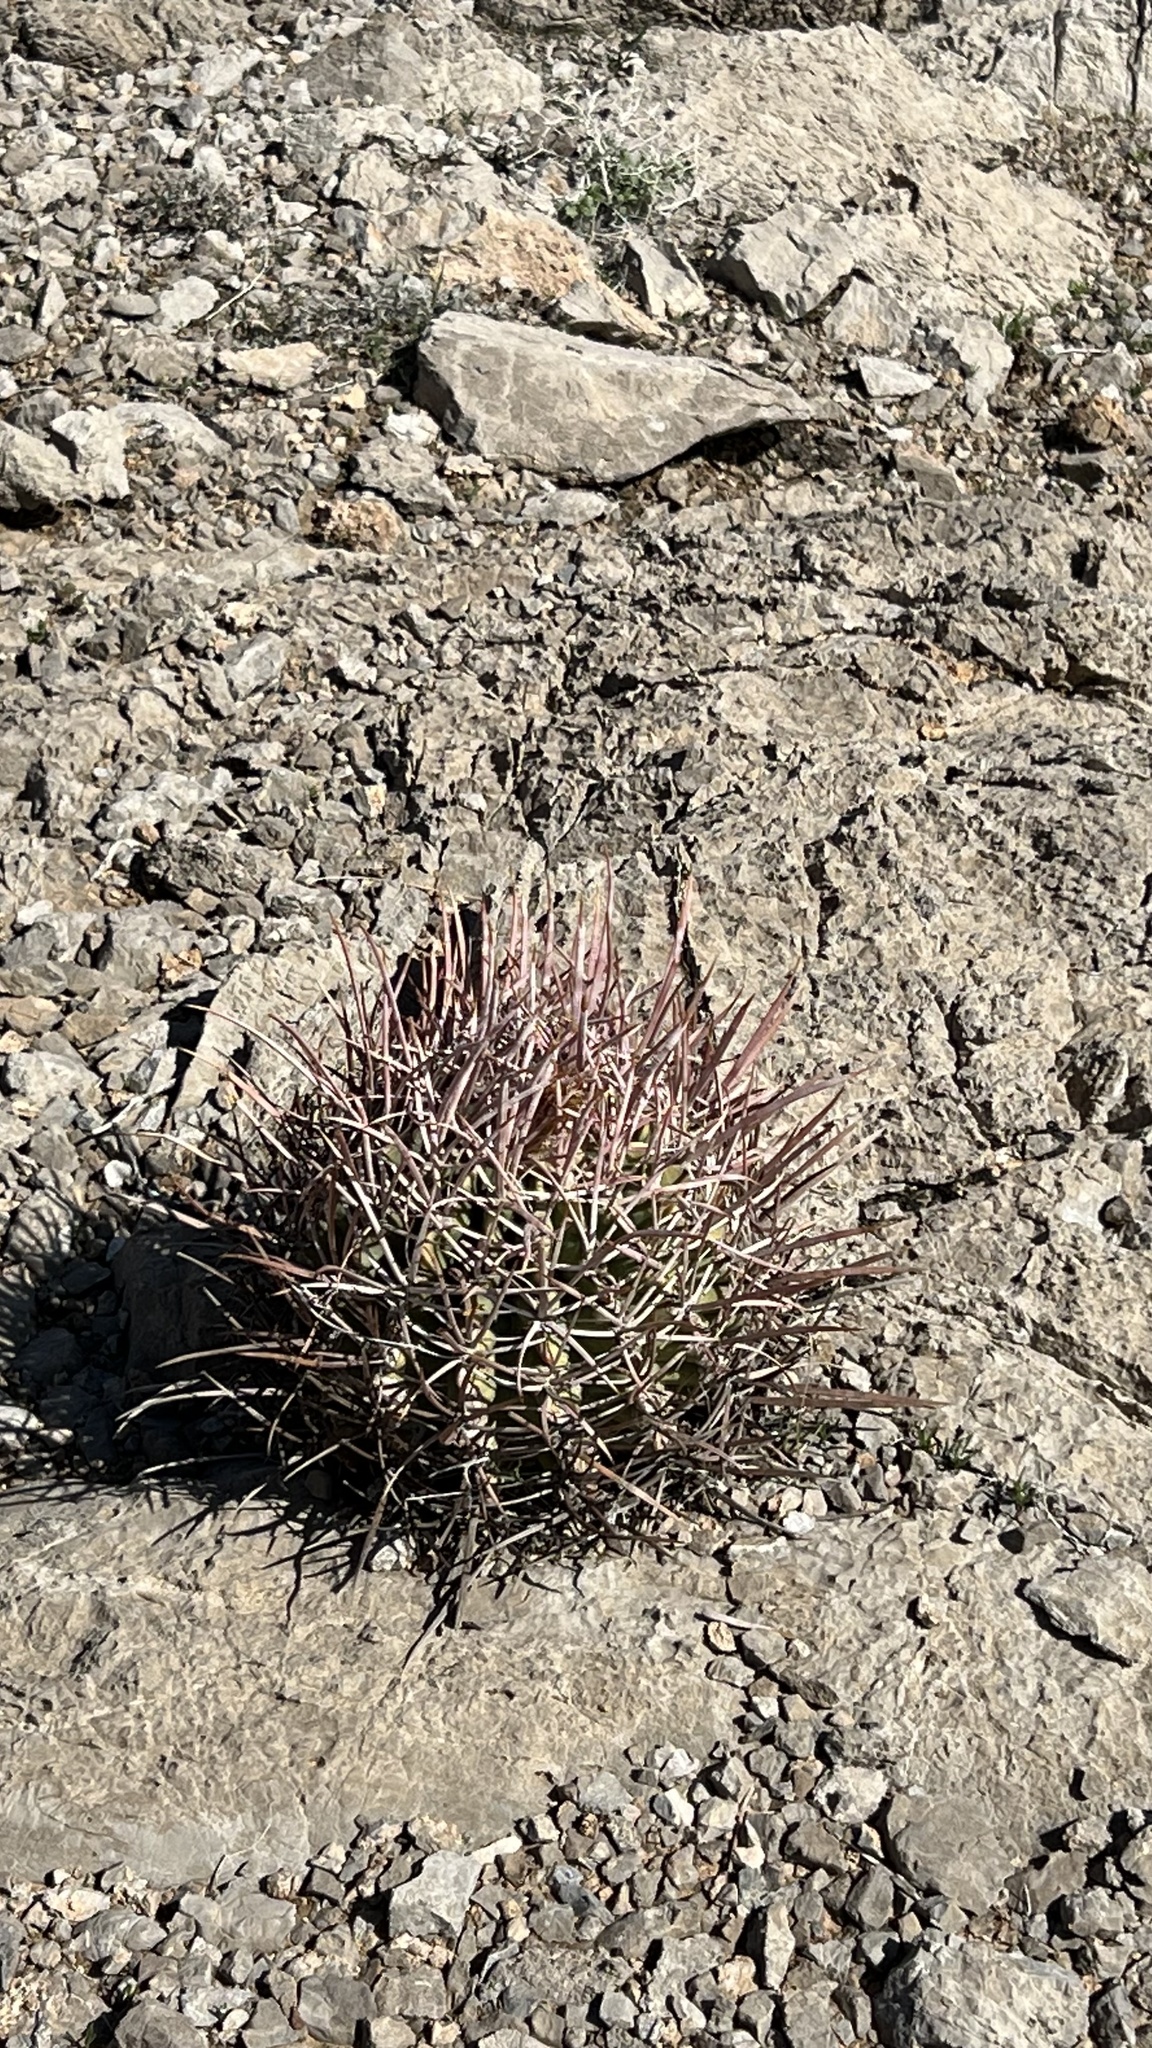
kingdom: Plantae
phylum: Tracheophyta
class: Magnoliopsida
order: Caryophyllales
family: Cactaceae
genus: Echinocactus
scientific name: Echinocactus polycephalus
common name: Cottontop cactus
